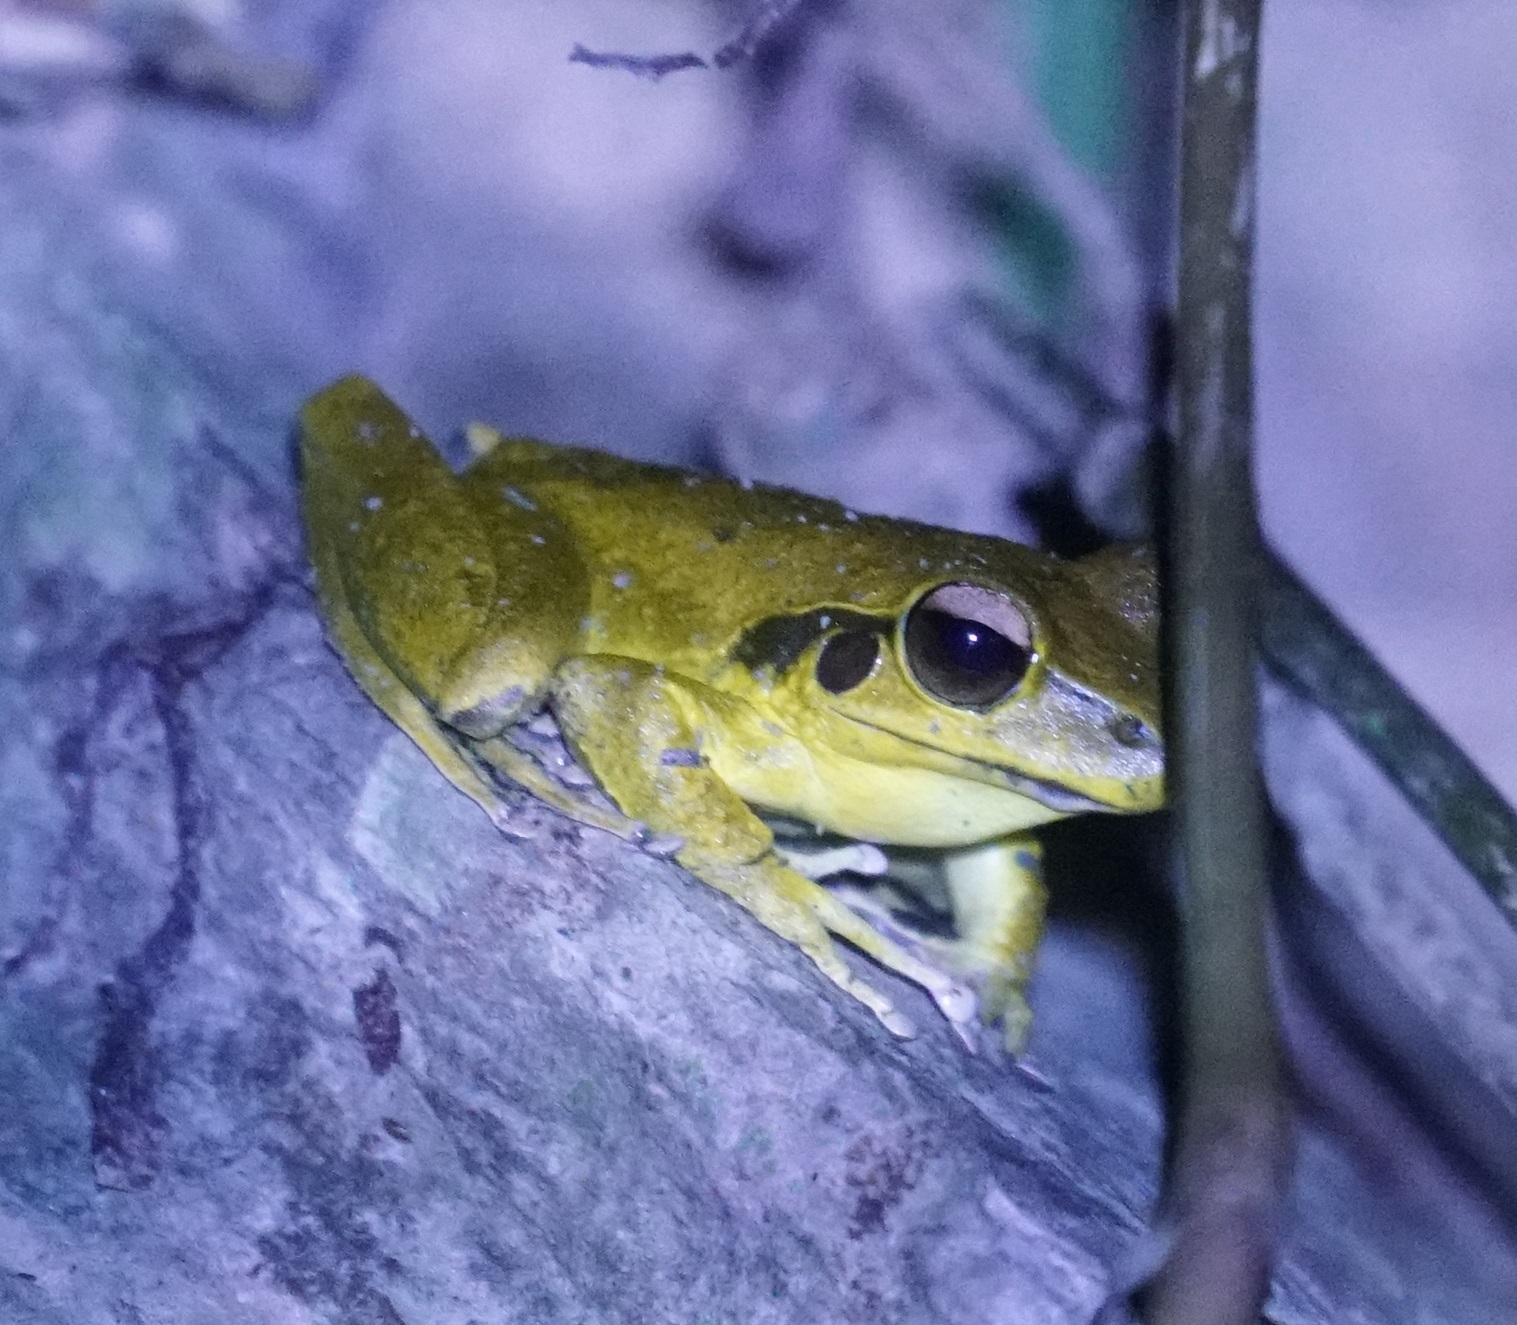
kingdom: Animalia
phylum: Chordata
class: Amphibia
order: Anura
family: Hylidae
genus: Ranoidea
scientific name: Ranoidea
